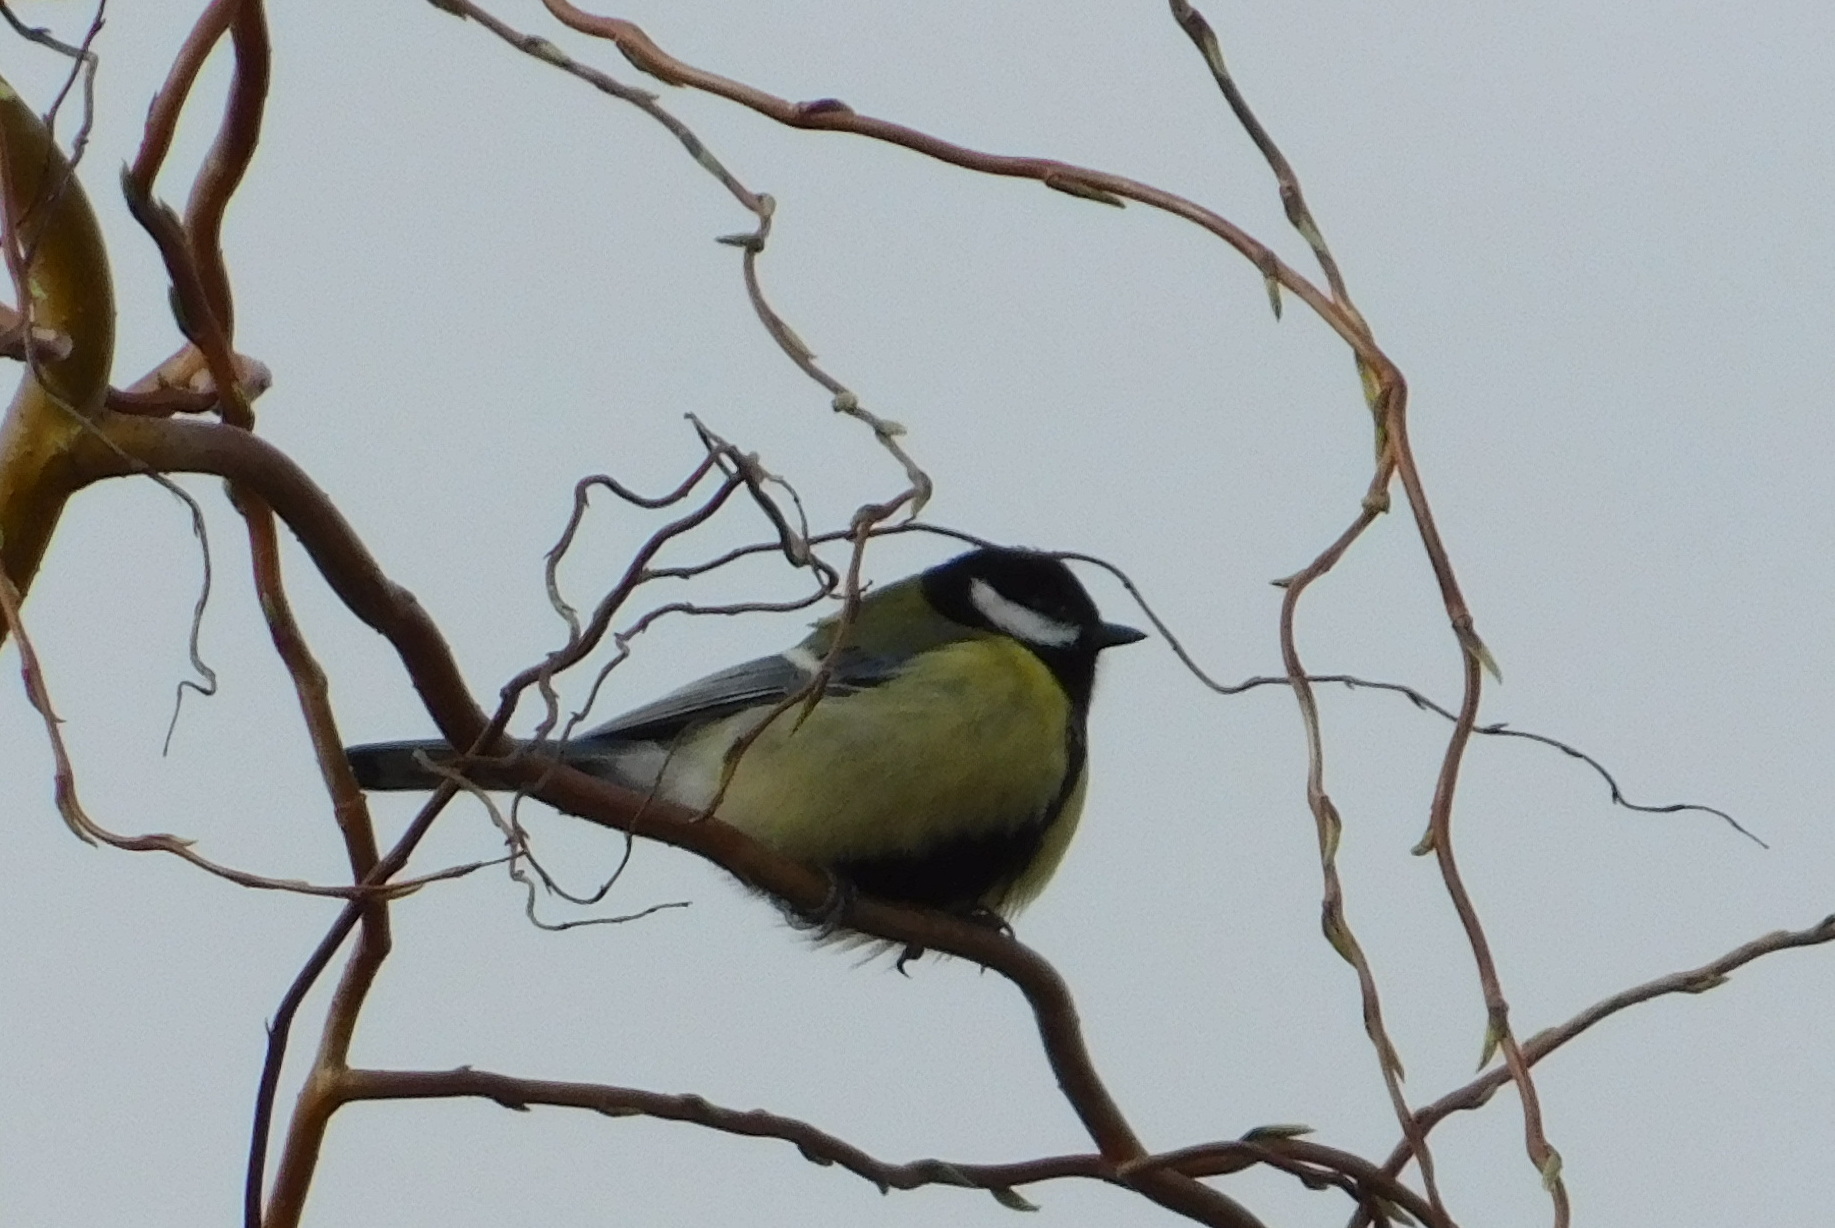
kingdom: Animalia
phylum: Chordata
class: Aves
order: Passeriformes
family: Paridae
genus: Parus
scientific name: Parus major
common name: Great tit
